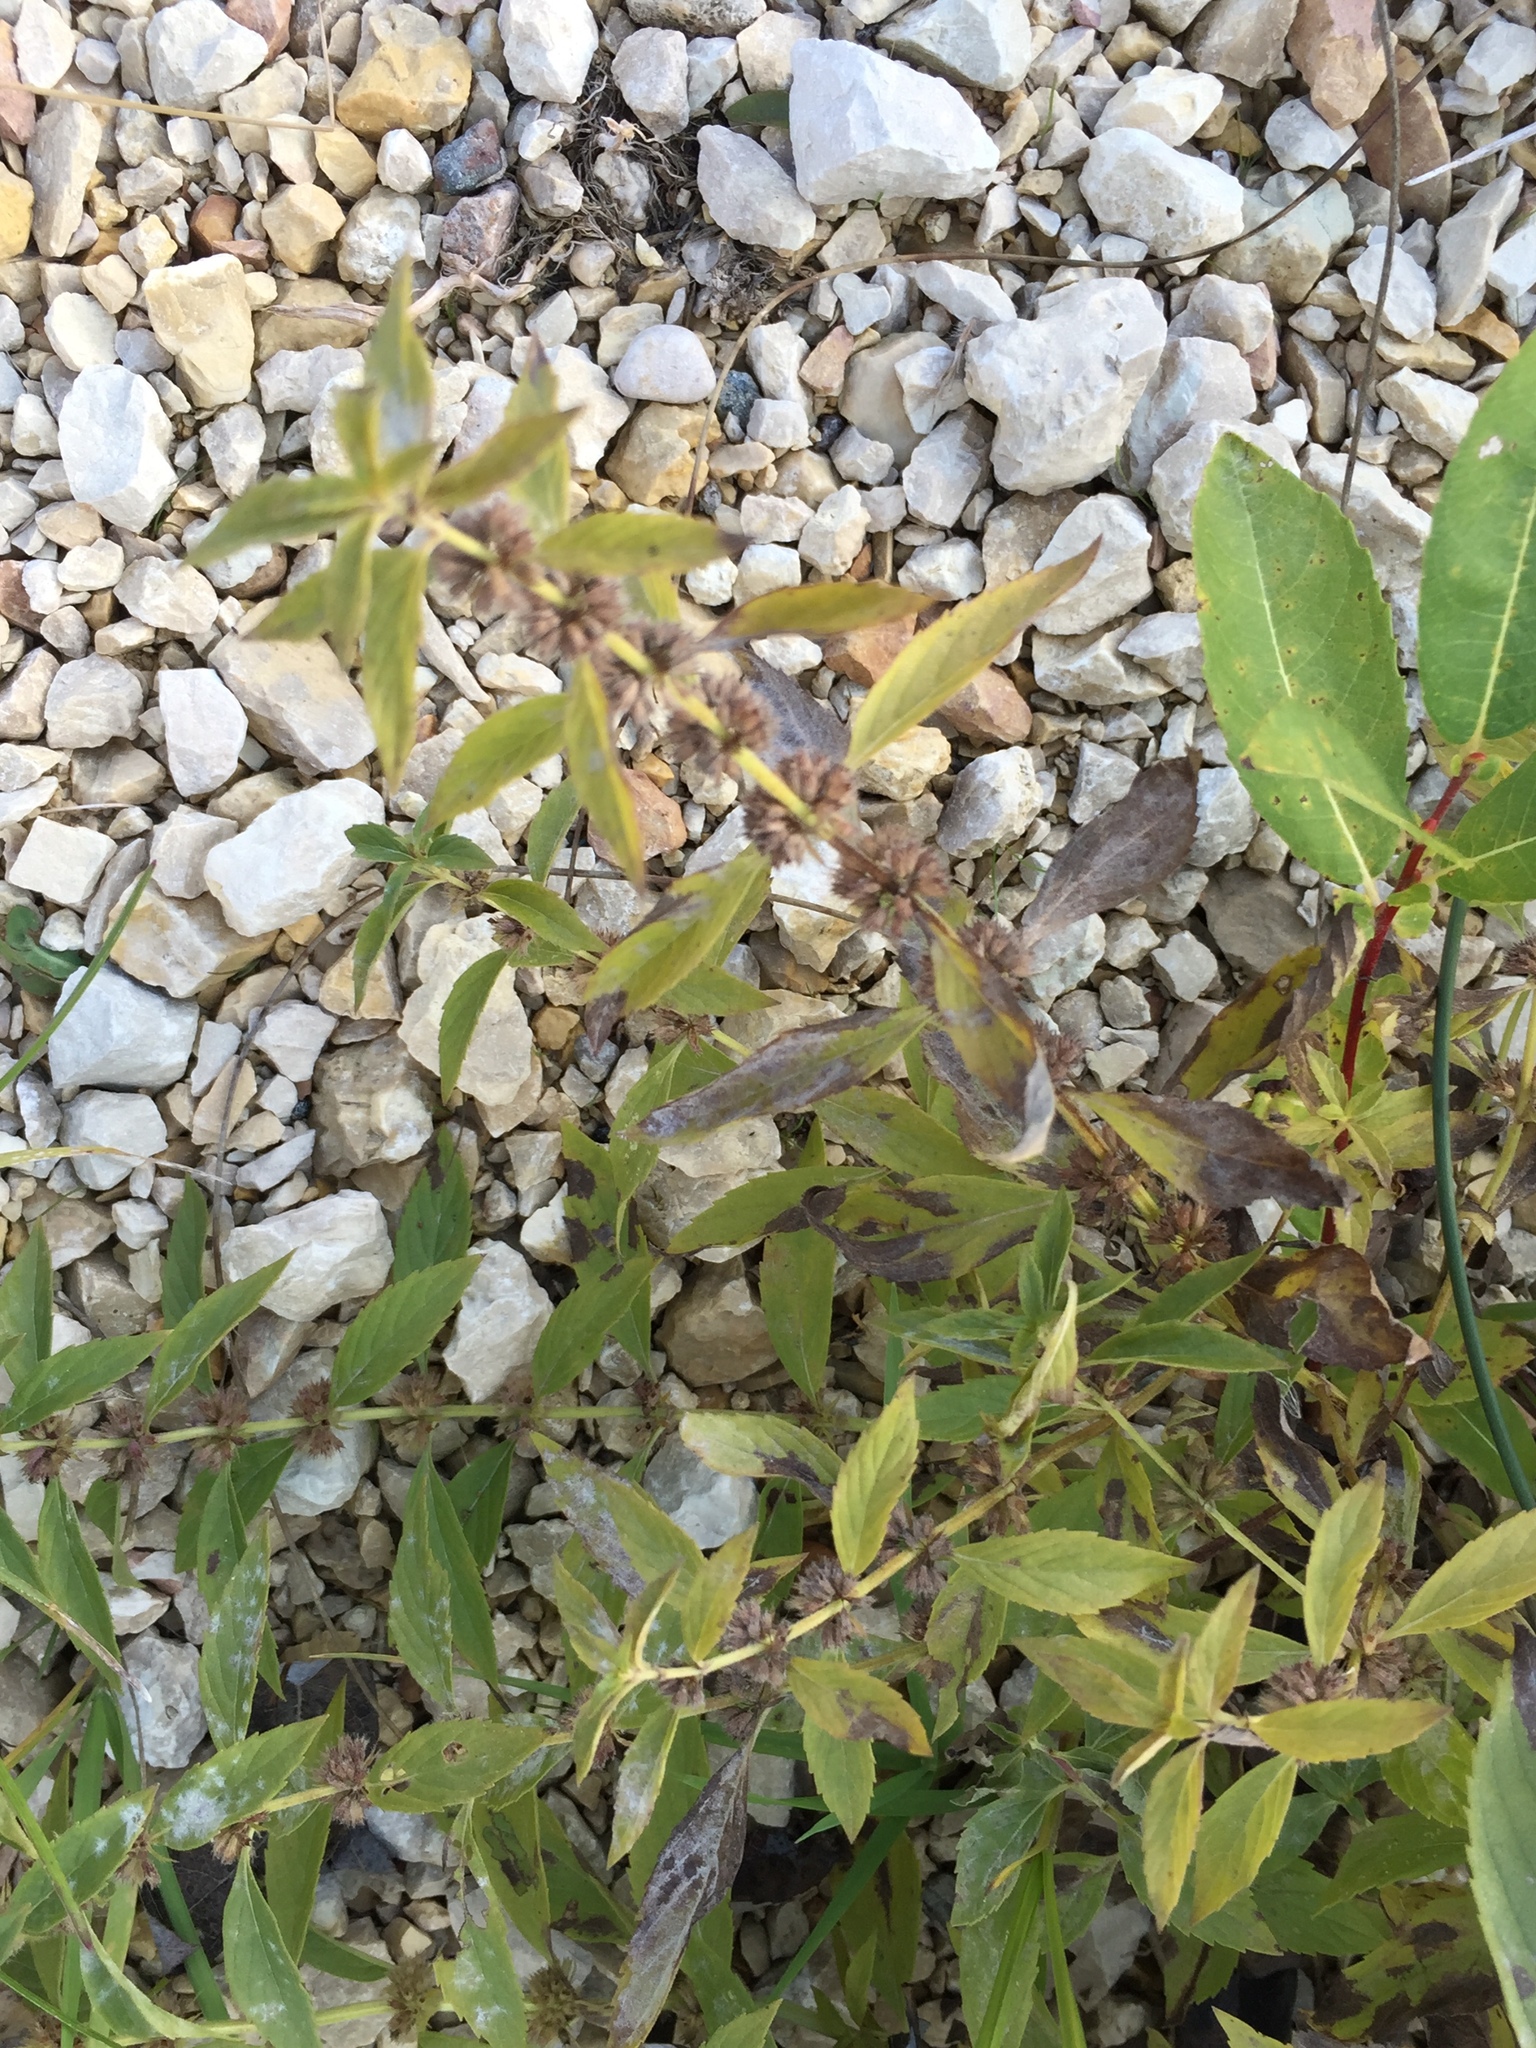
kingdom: Plantae
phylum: Tracheophyta
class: Magnoliopsida
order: Lamiales
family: Lamiaceae
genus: Mentha
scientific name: Mentha canadensis
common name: American corn mint
